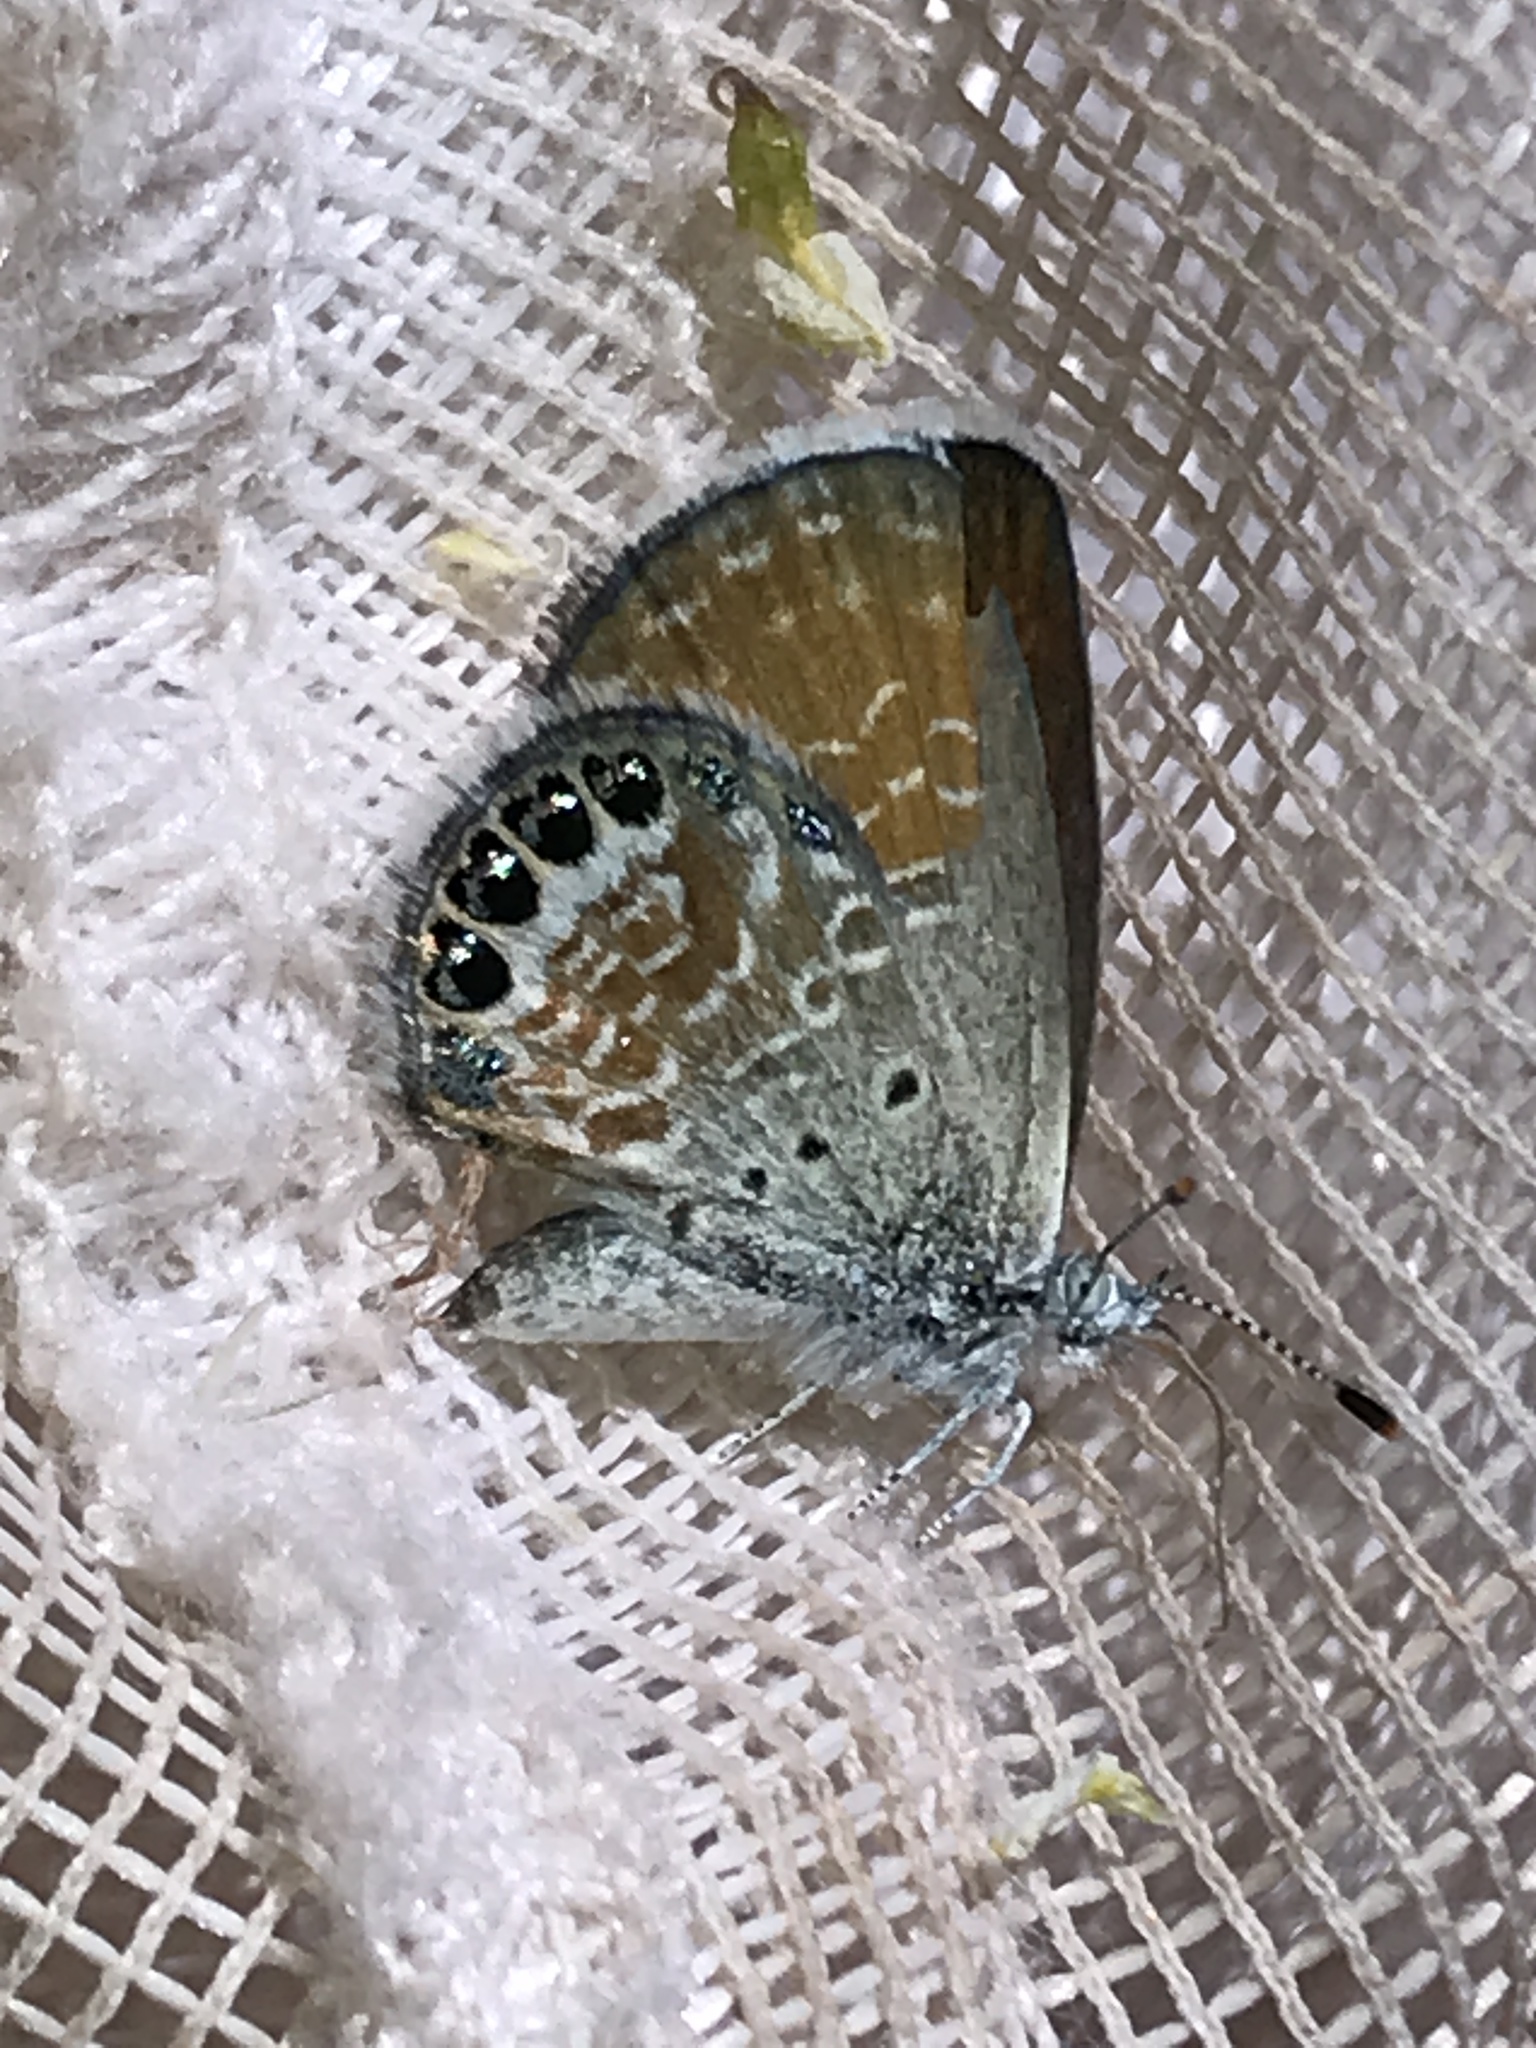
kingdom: Animalia
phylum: Arthropoda
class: Insecta
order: Lepidoptera
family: Lycaenidae
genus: Brephidium
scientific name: Brephidium exilis
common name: Pygmy blue
